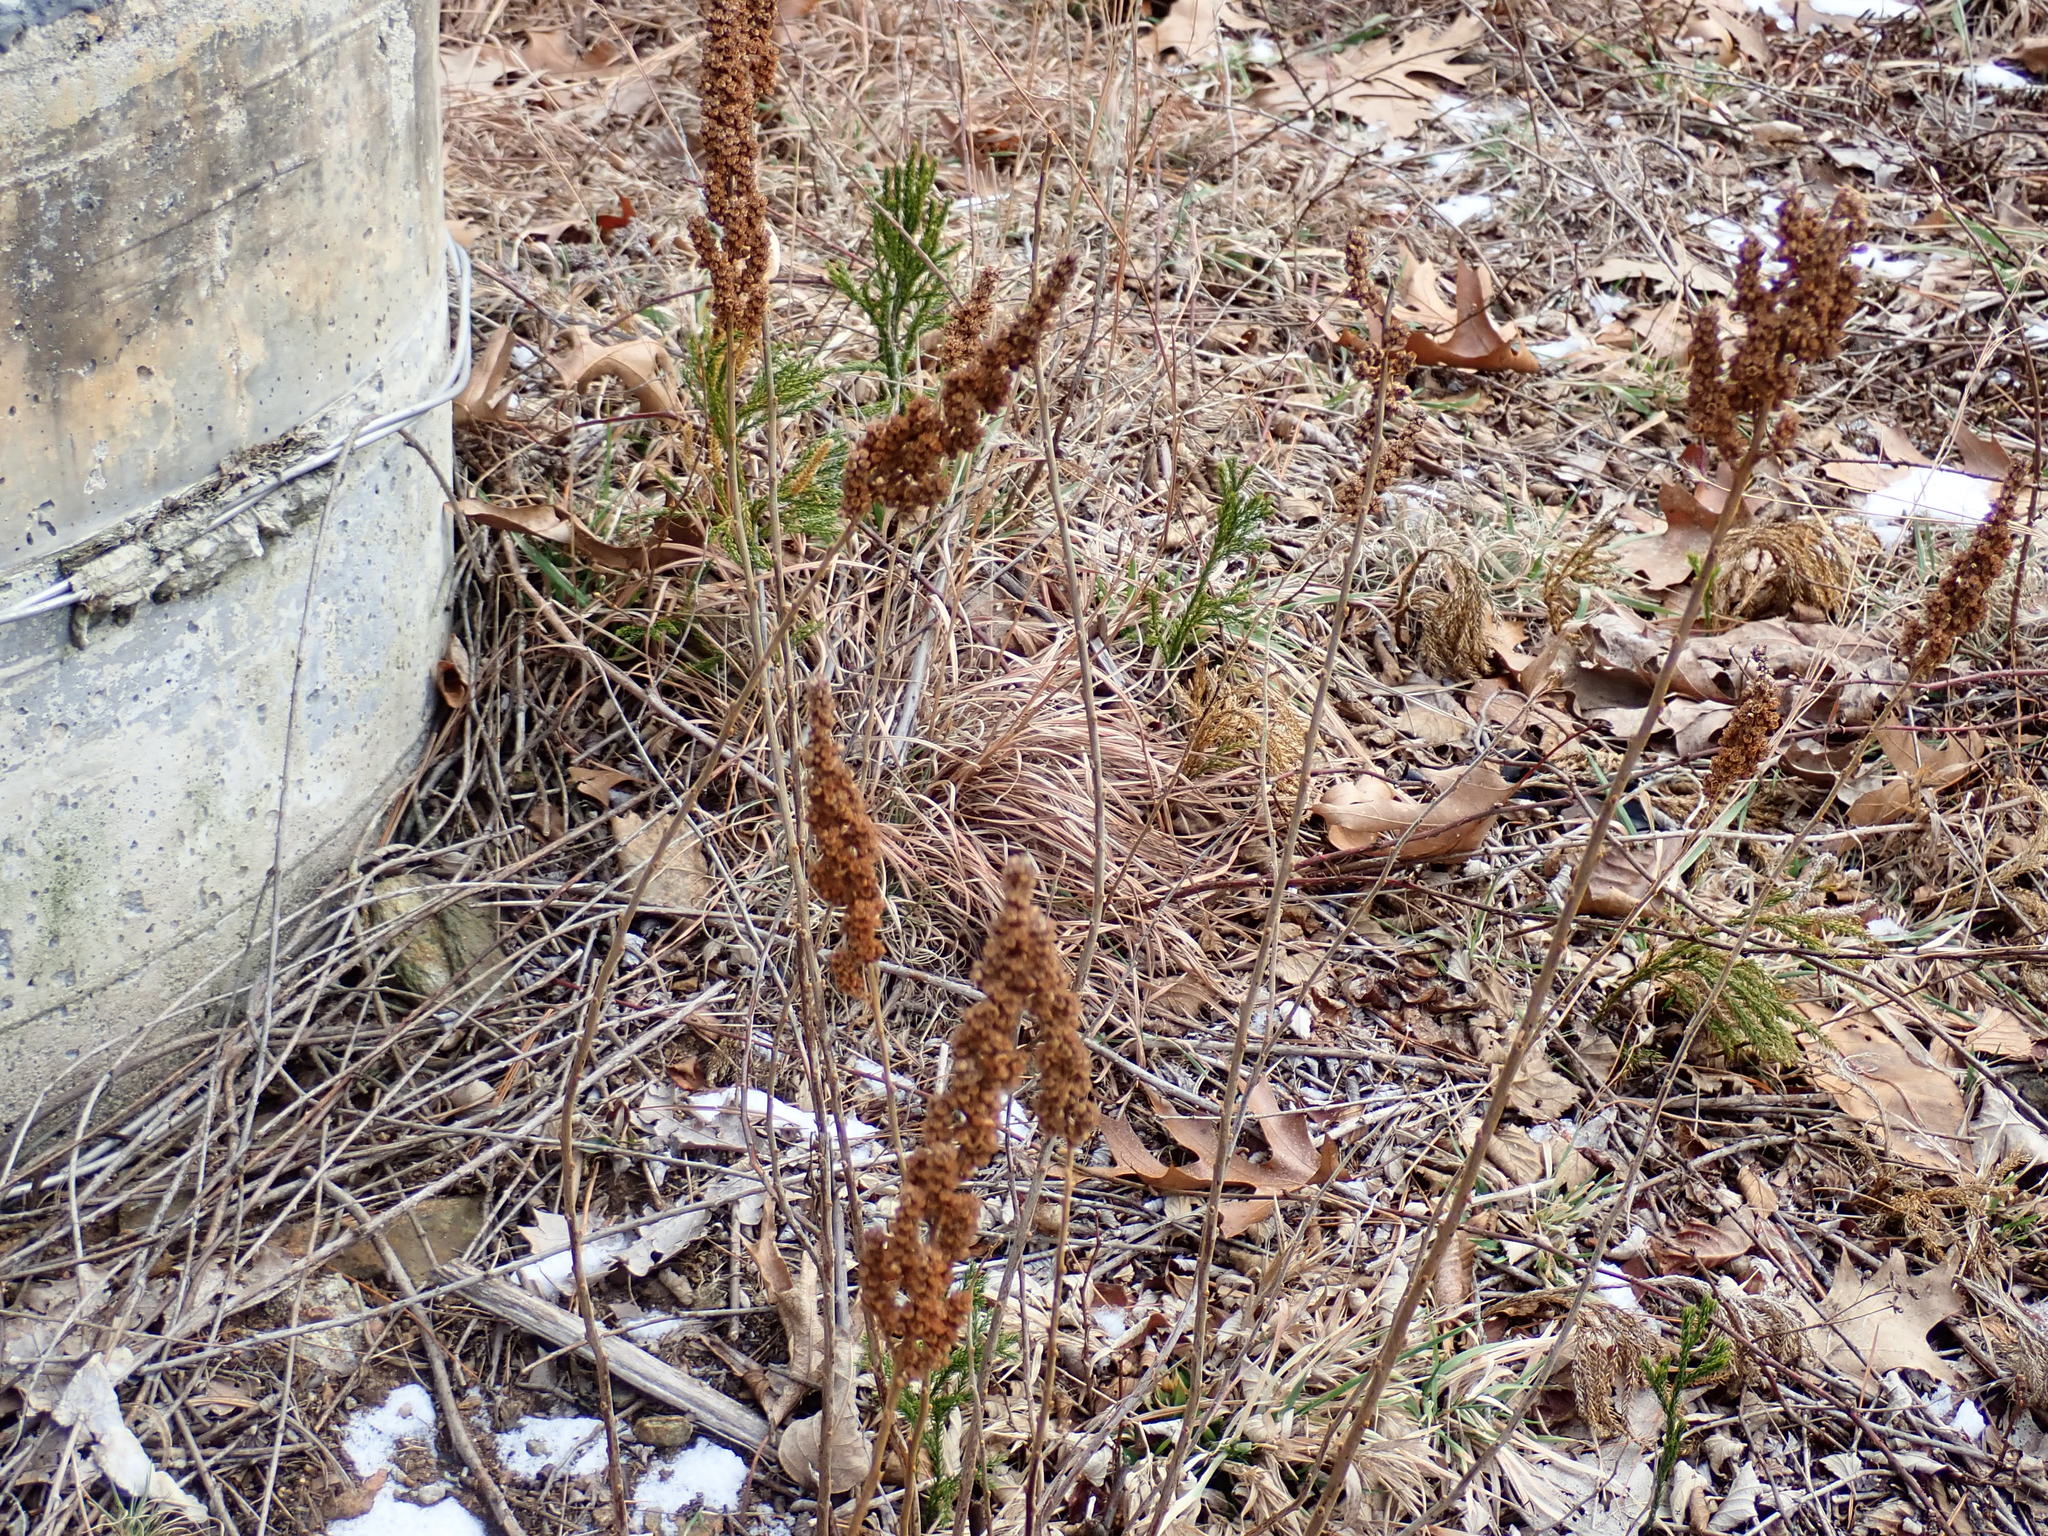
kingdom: Plantae
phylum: Tracheophyta
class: Magnoliopsida
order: Rosales
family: Rosaceae
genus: Spiraea
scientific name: Spiraea tomentosa
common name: Hardhack
